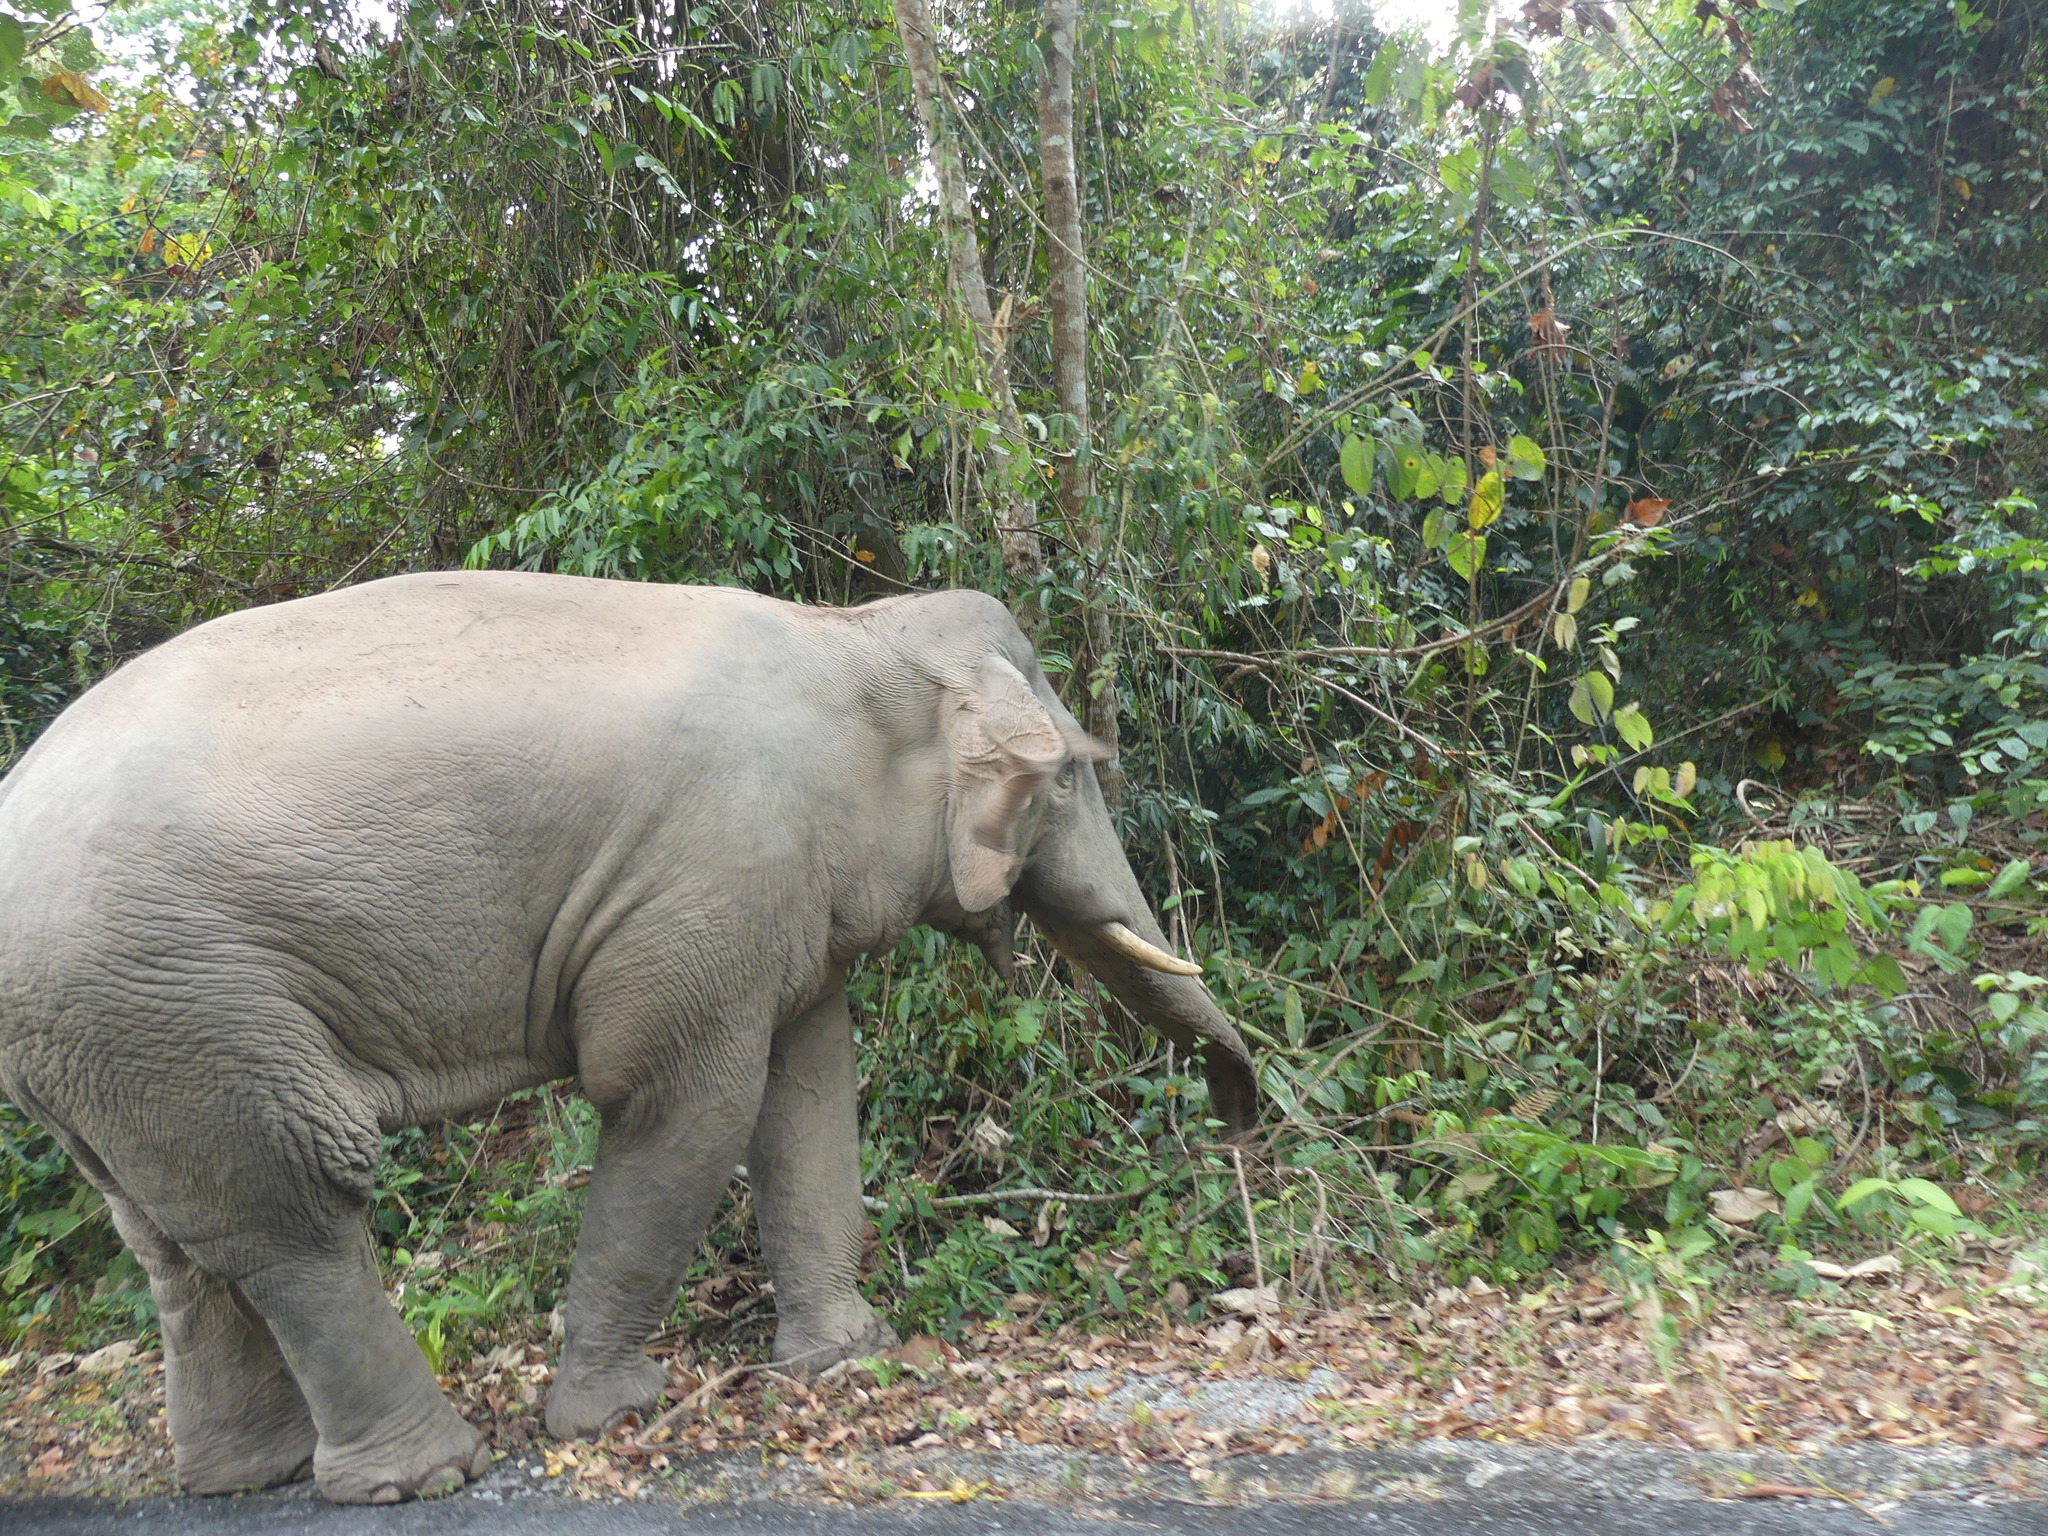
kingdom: Animalia
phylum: Chordata
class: Mammalia
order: Proboscidea
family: Elephantidae
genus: Elephas
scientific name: Elephas maximus
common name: Asian elephant
